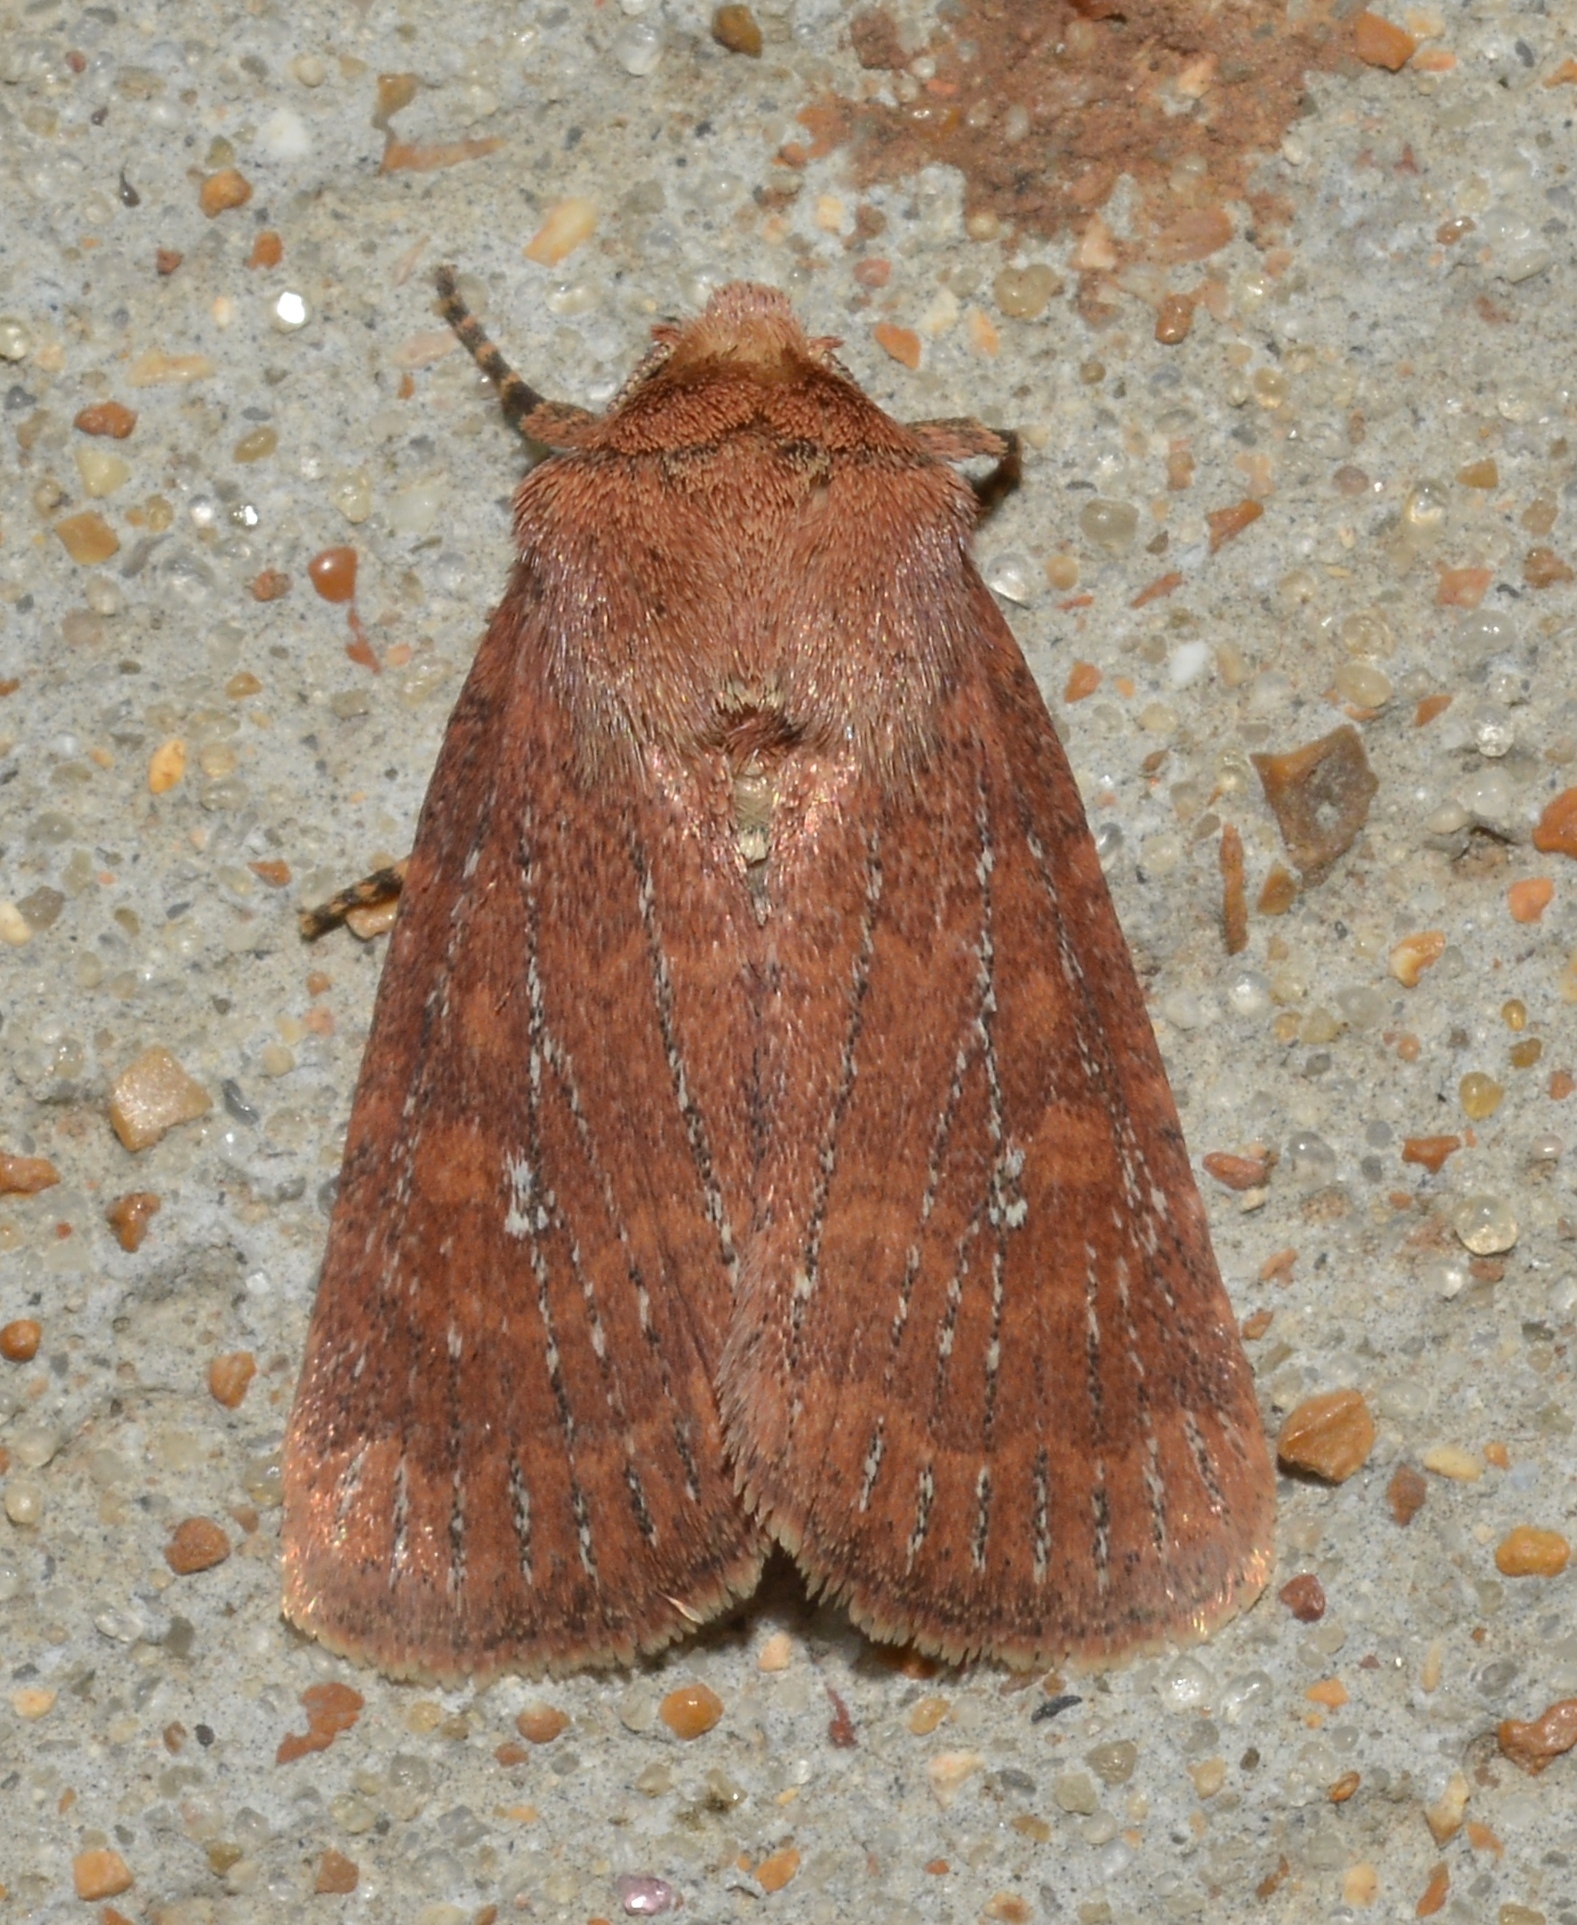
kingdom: Animalia
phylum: Arthropoda
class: Insecta
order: Lepidoptera
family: Noctuidae
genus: Homorthodes
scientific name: Homorthodes lindseyi
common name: Southern scurfy quaker
